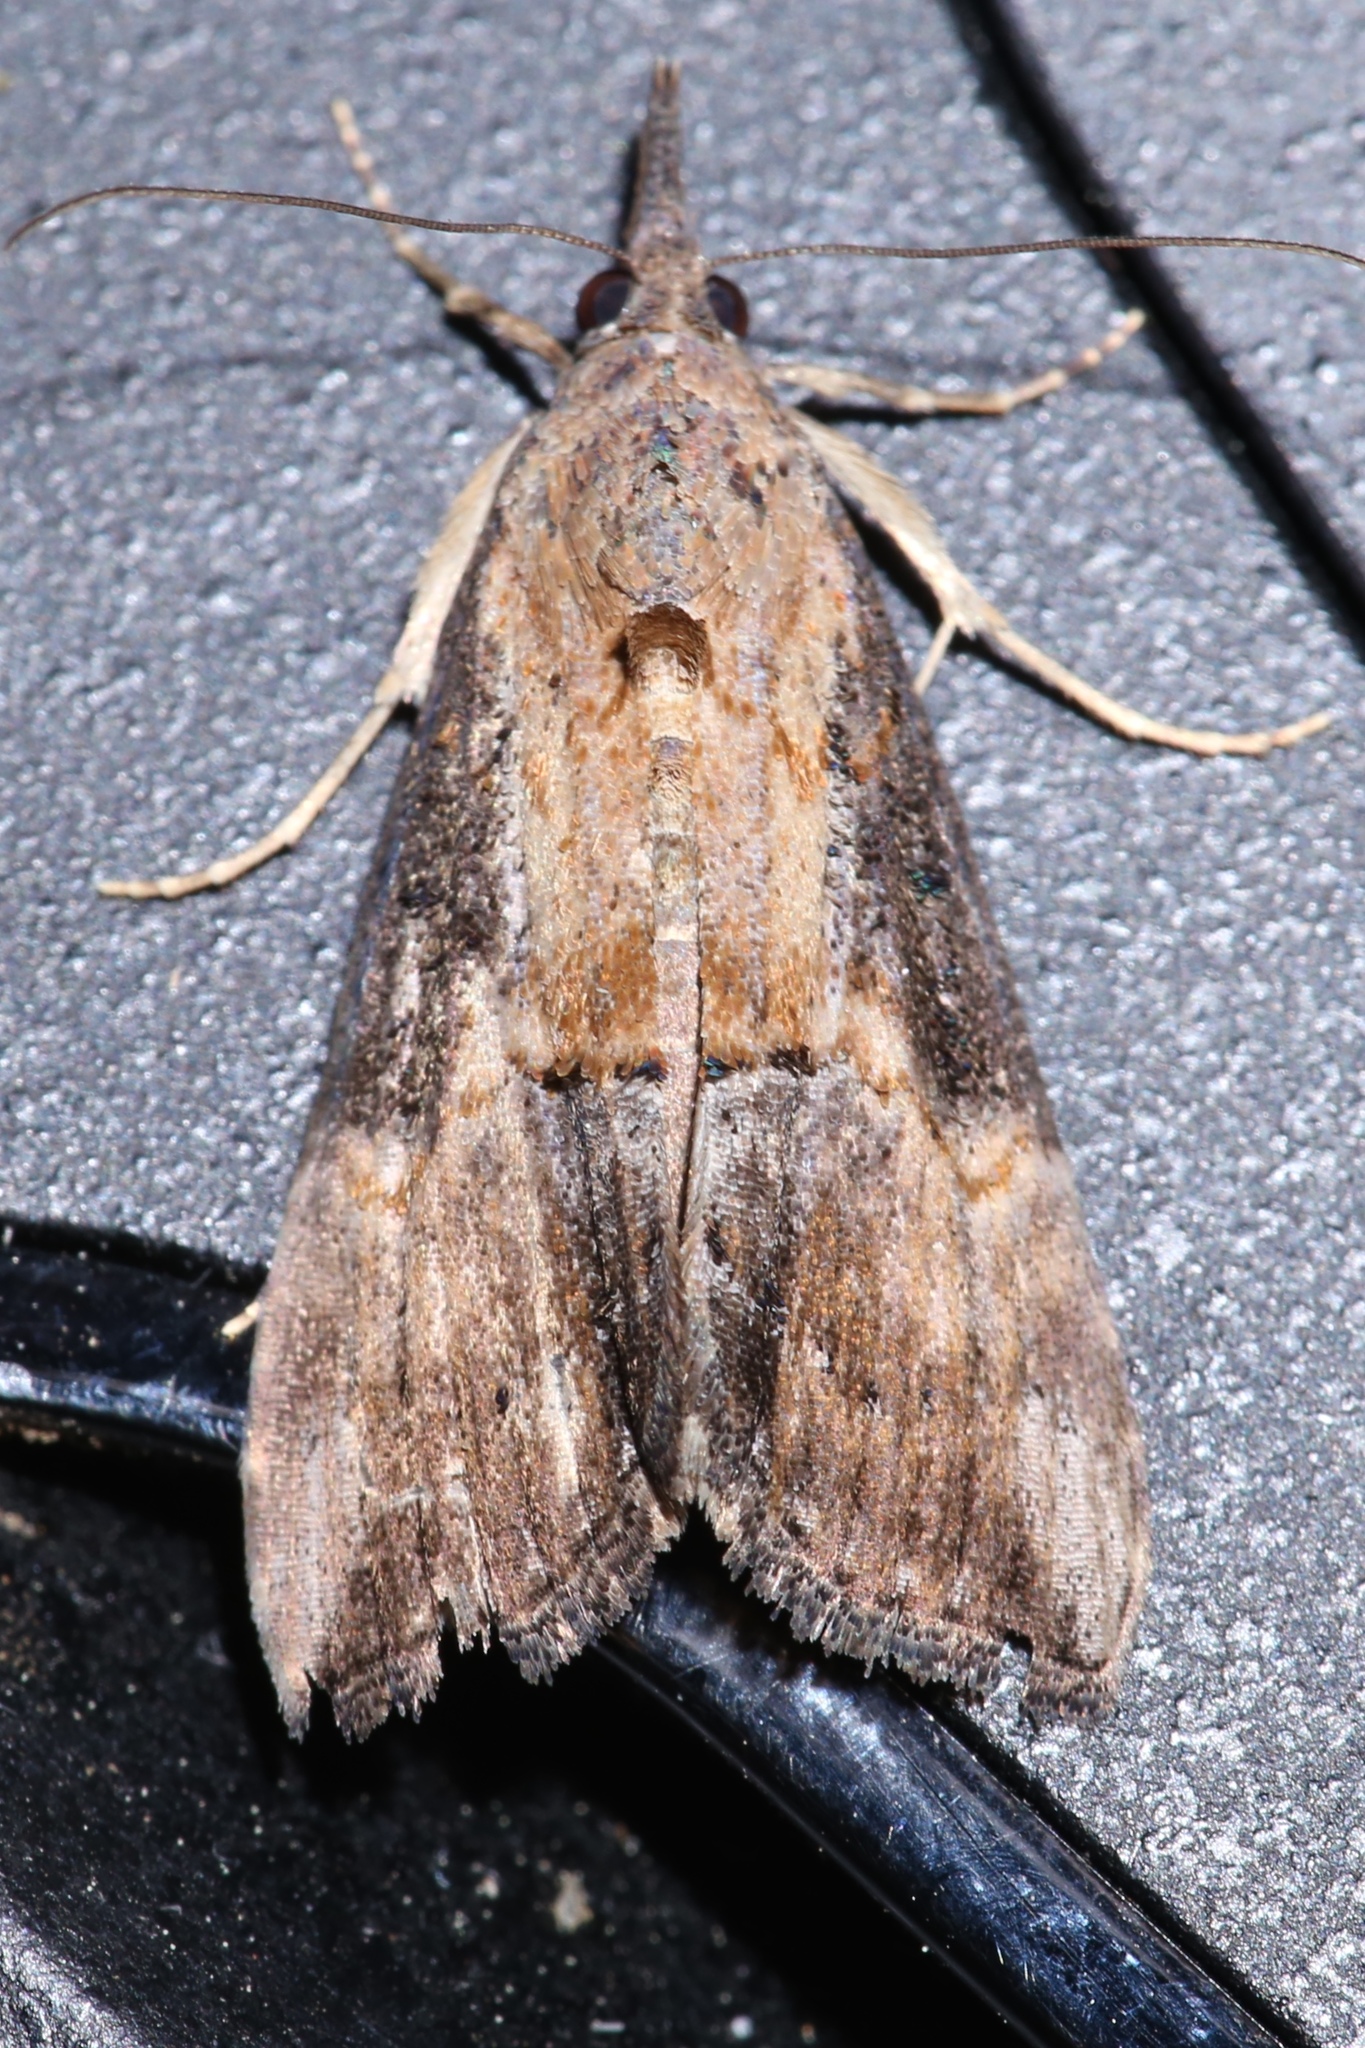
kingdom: Animalia
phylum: Arthropoda
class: Insecta
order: Lepidoptera
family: Erebidae
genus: Hypena
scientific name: Hypena scabra
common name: Green cloverworm
